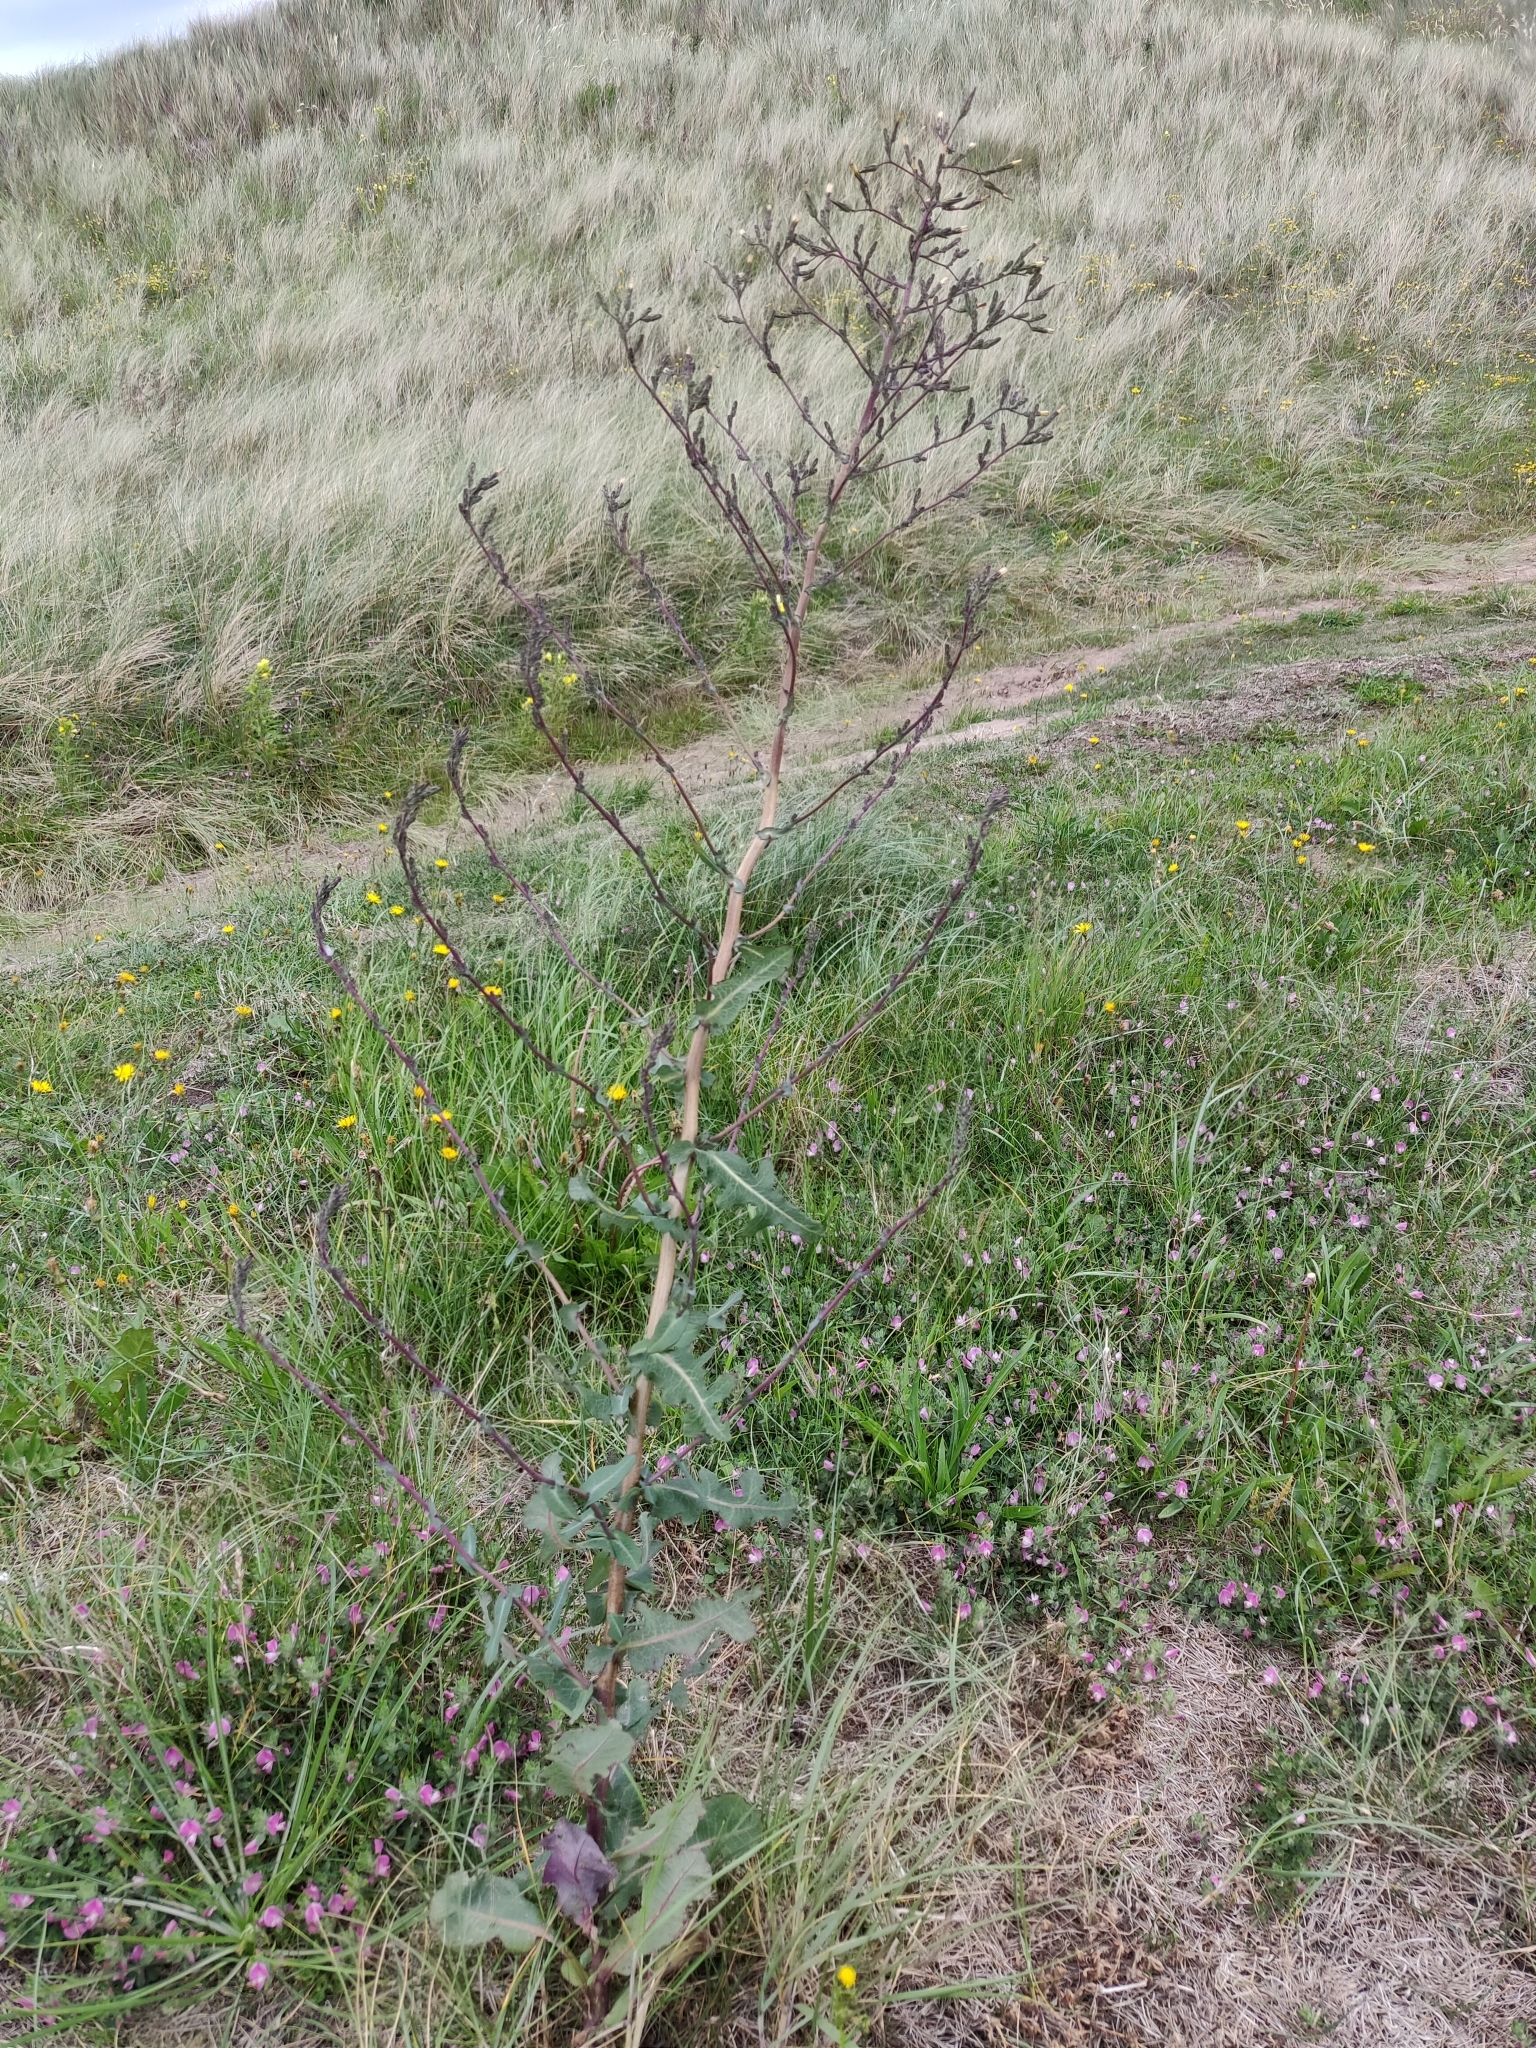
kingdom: Plantae
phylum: Tracheophyta
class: Magnoliopsida
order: Asterales
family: Asteraceae
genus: Lactuca
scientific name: Lactuca virosa
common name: Great lettuce
